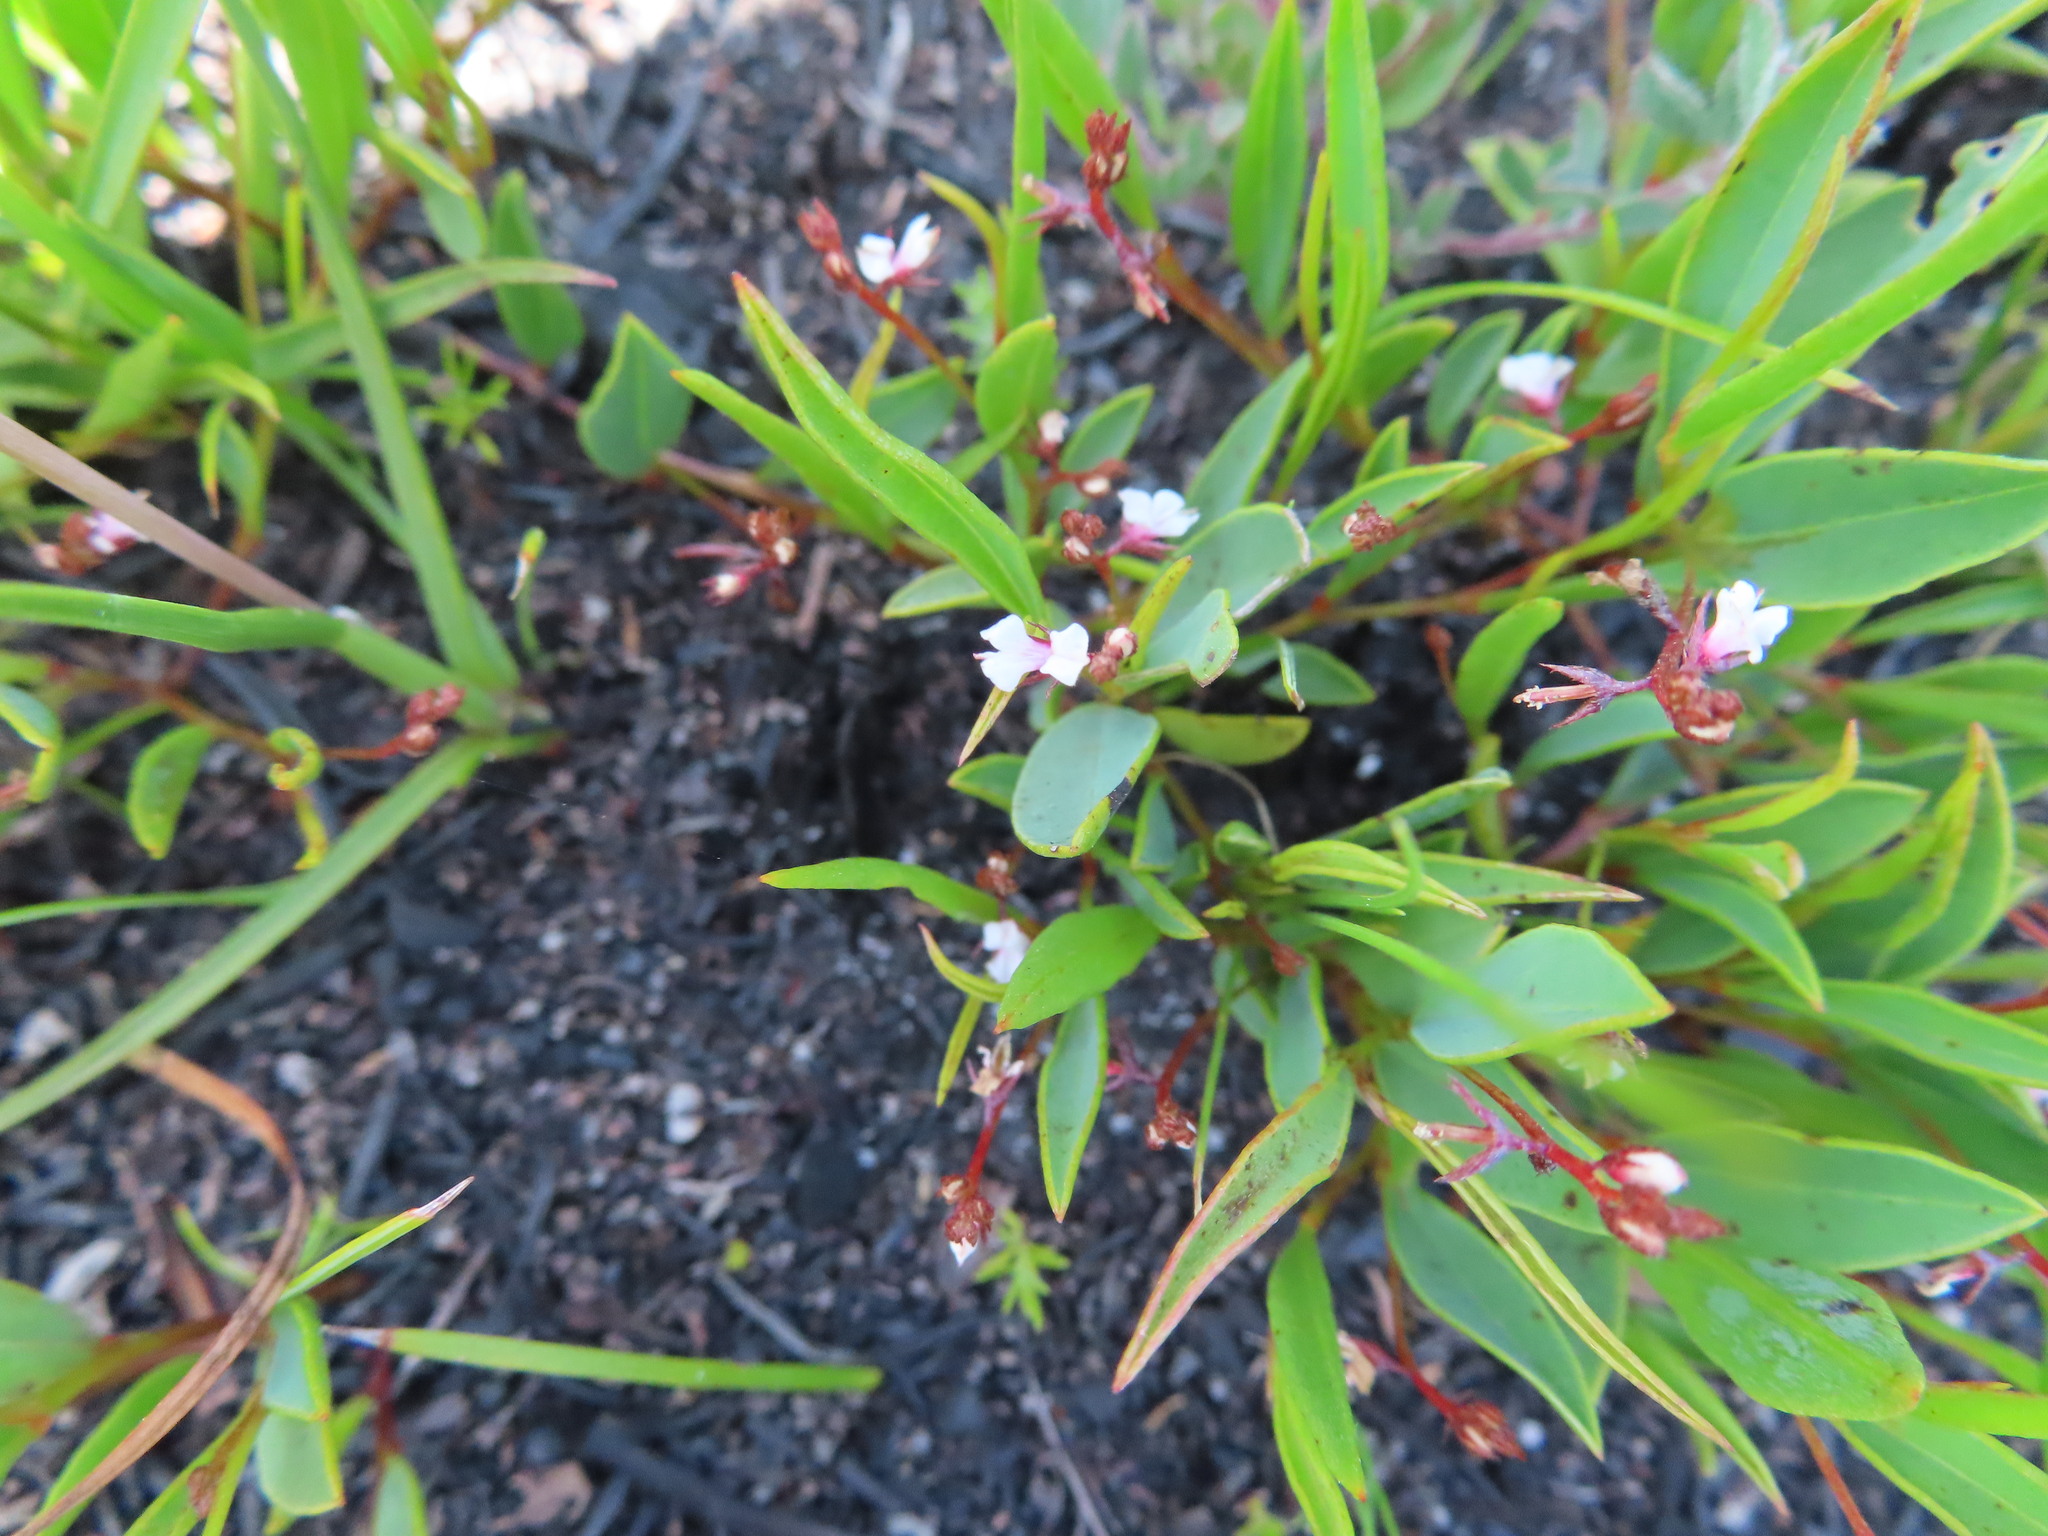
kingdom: Plantae
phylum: Tracheophyta
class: Magnoliopsida
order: Fabales
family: Fabaceae
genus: Indigofera
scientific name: Indigofera guthriei
